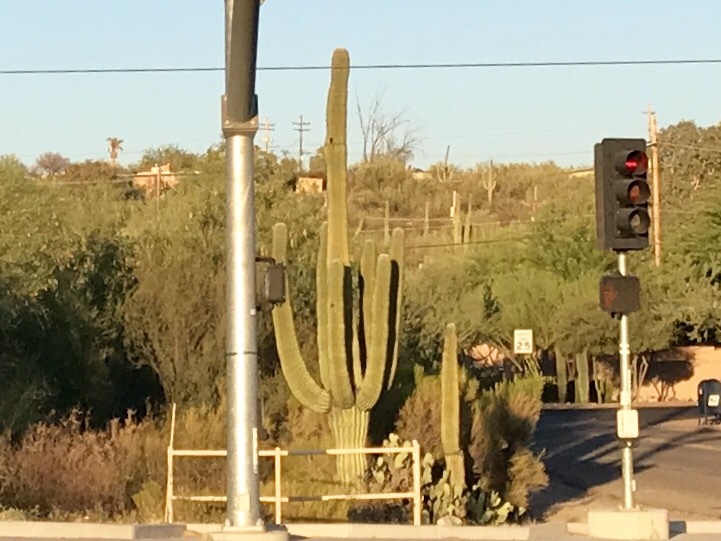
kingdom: Plantae
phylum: Tracheophyta
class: Magnoliopsida
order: Caryophyllales
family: Cactaceae
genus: Carnegiea
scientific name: Carnegiea gigantea
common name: Saguaro
